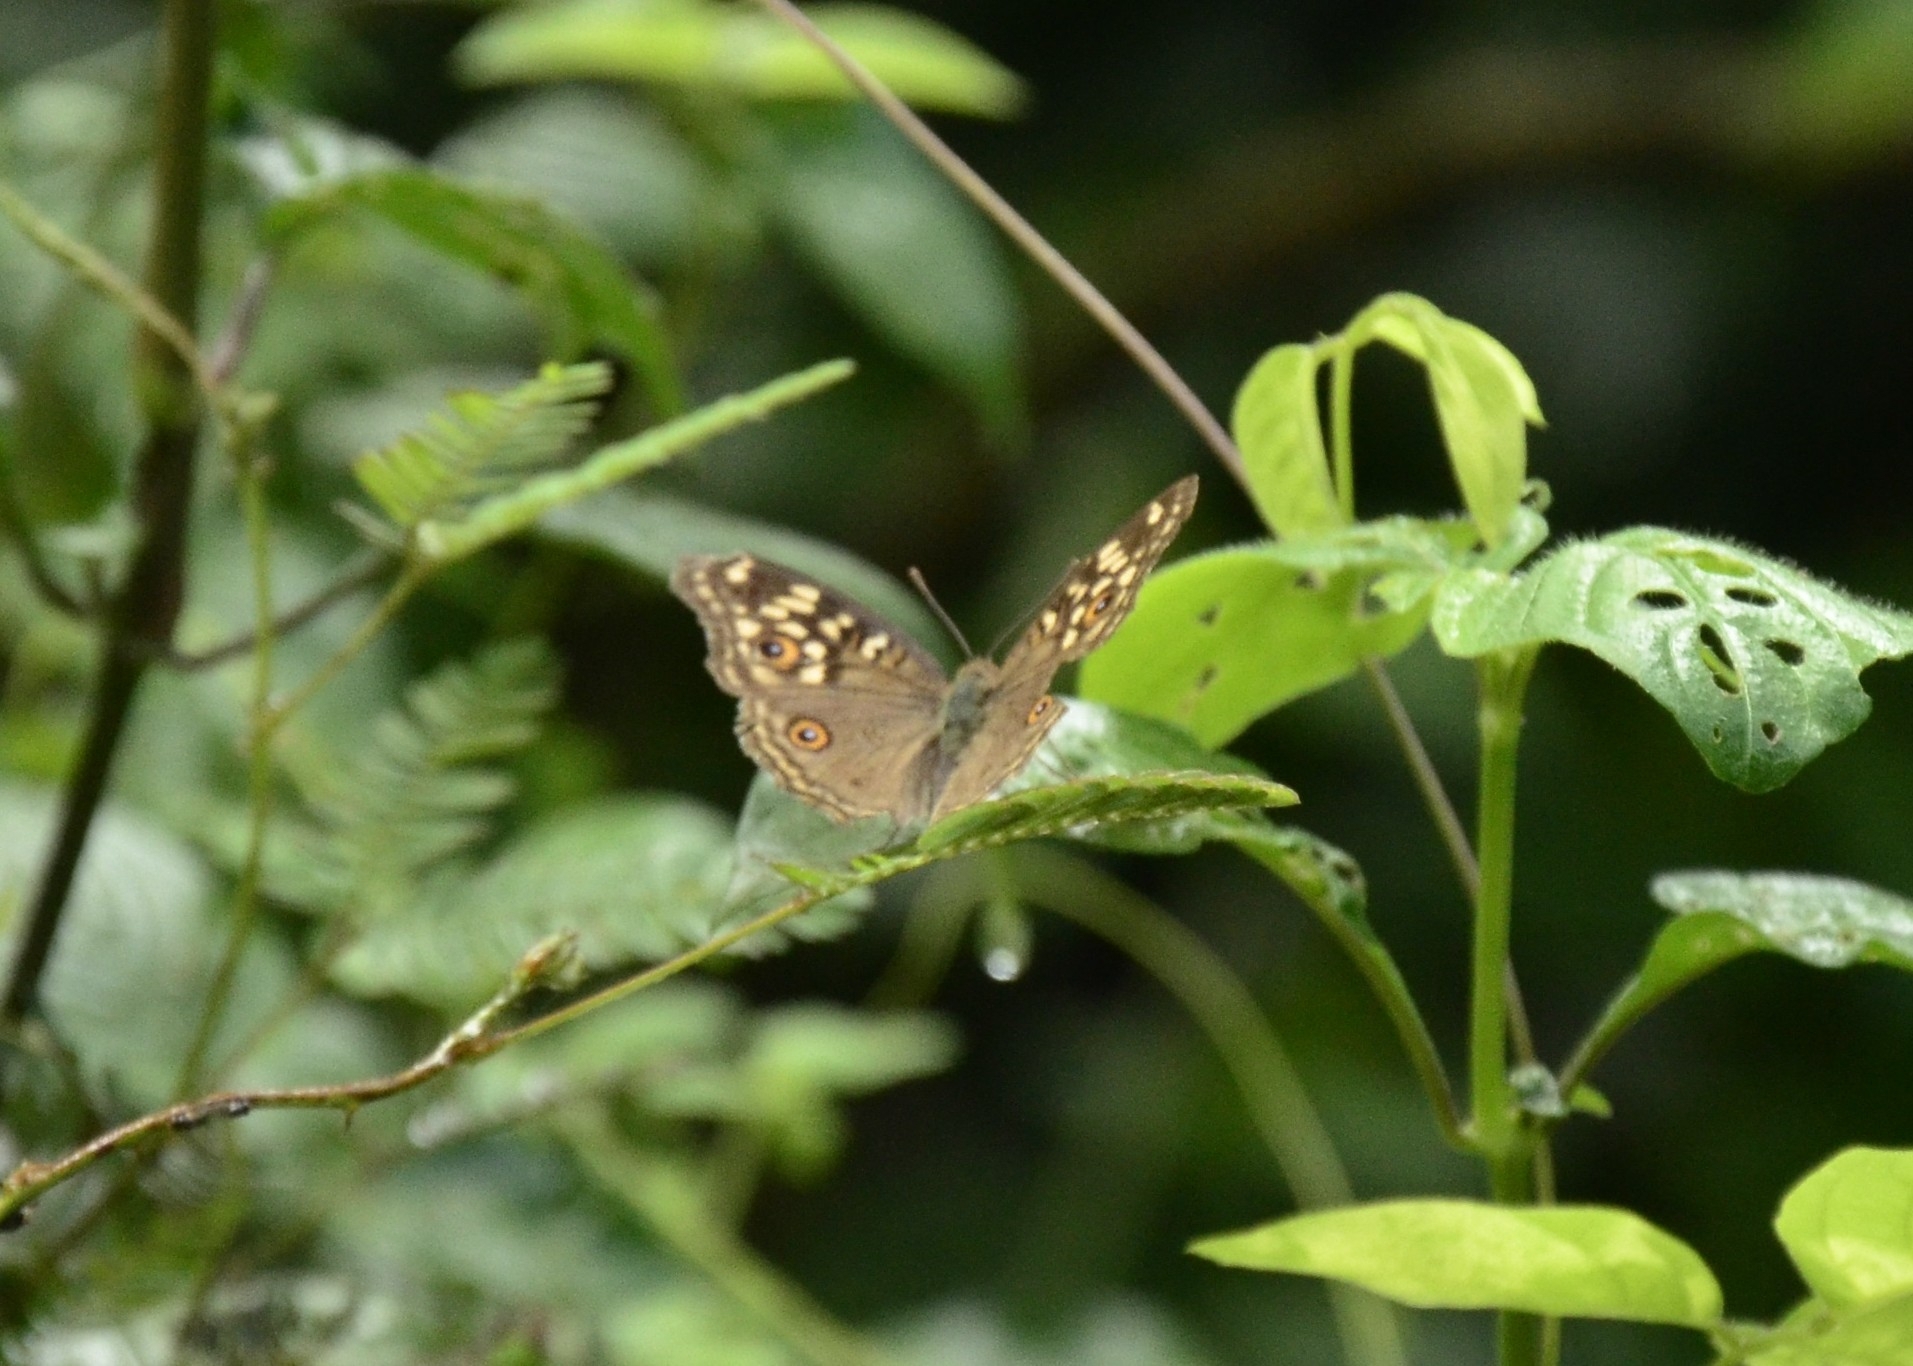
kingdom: Animalia
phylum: Arthropoda
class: Insecta
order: Lepidoptera
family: Nymphalidae
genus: Junonia
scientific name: Junonia lemonias
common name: Lemon pansy
